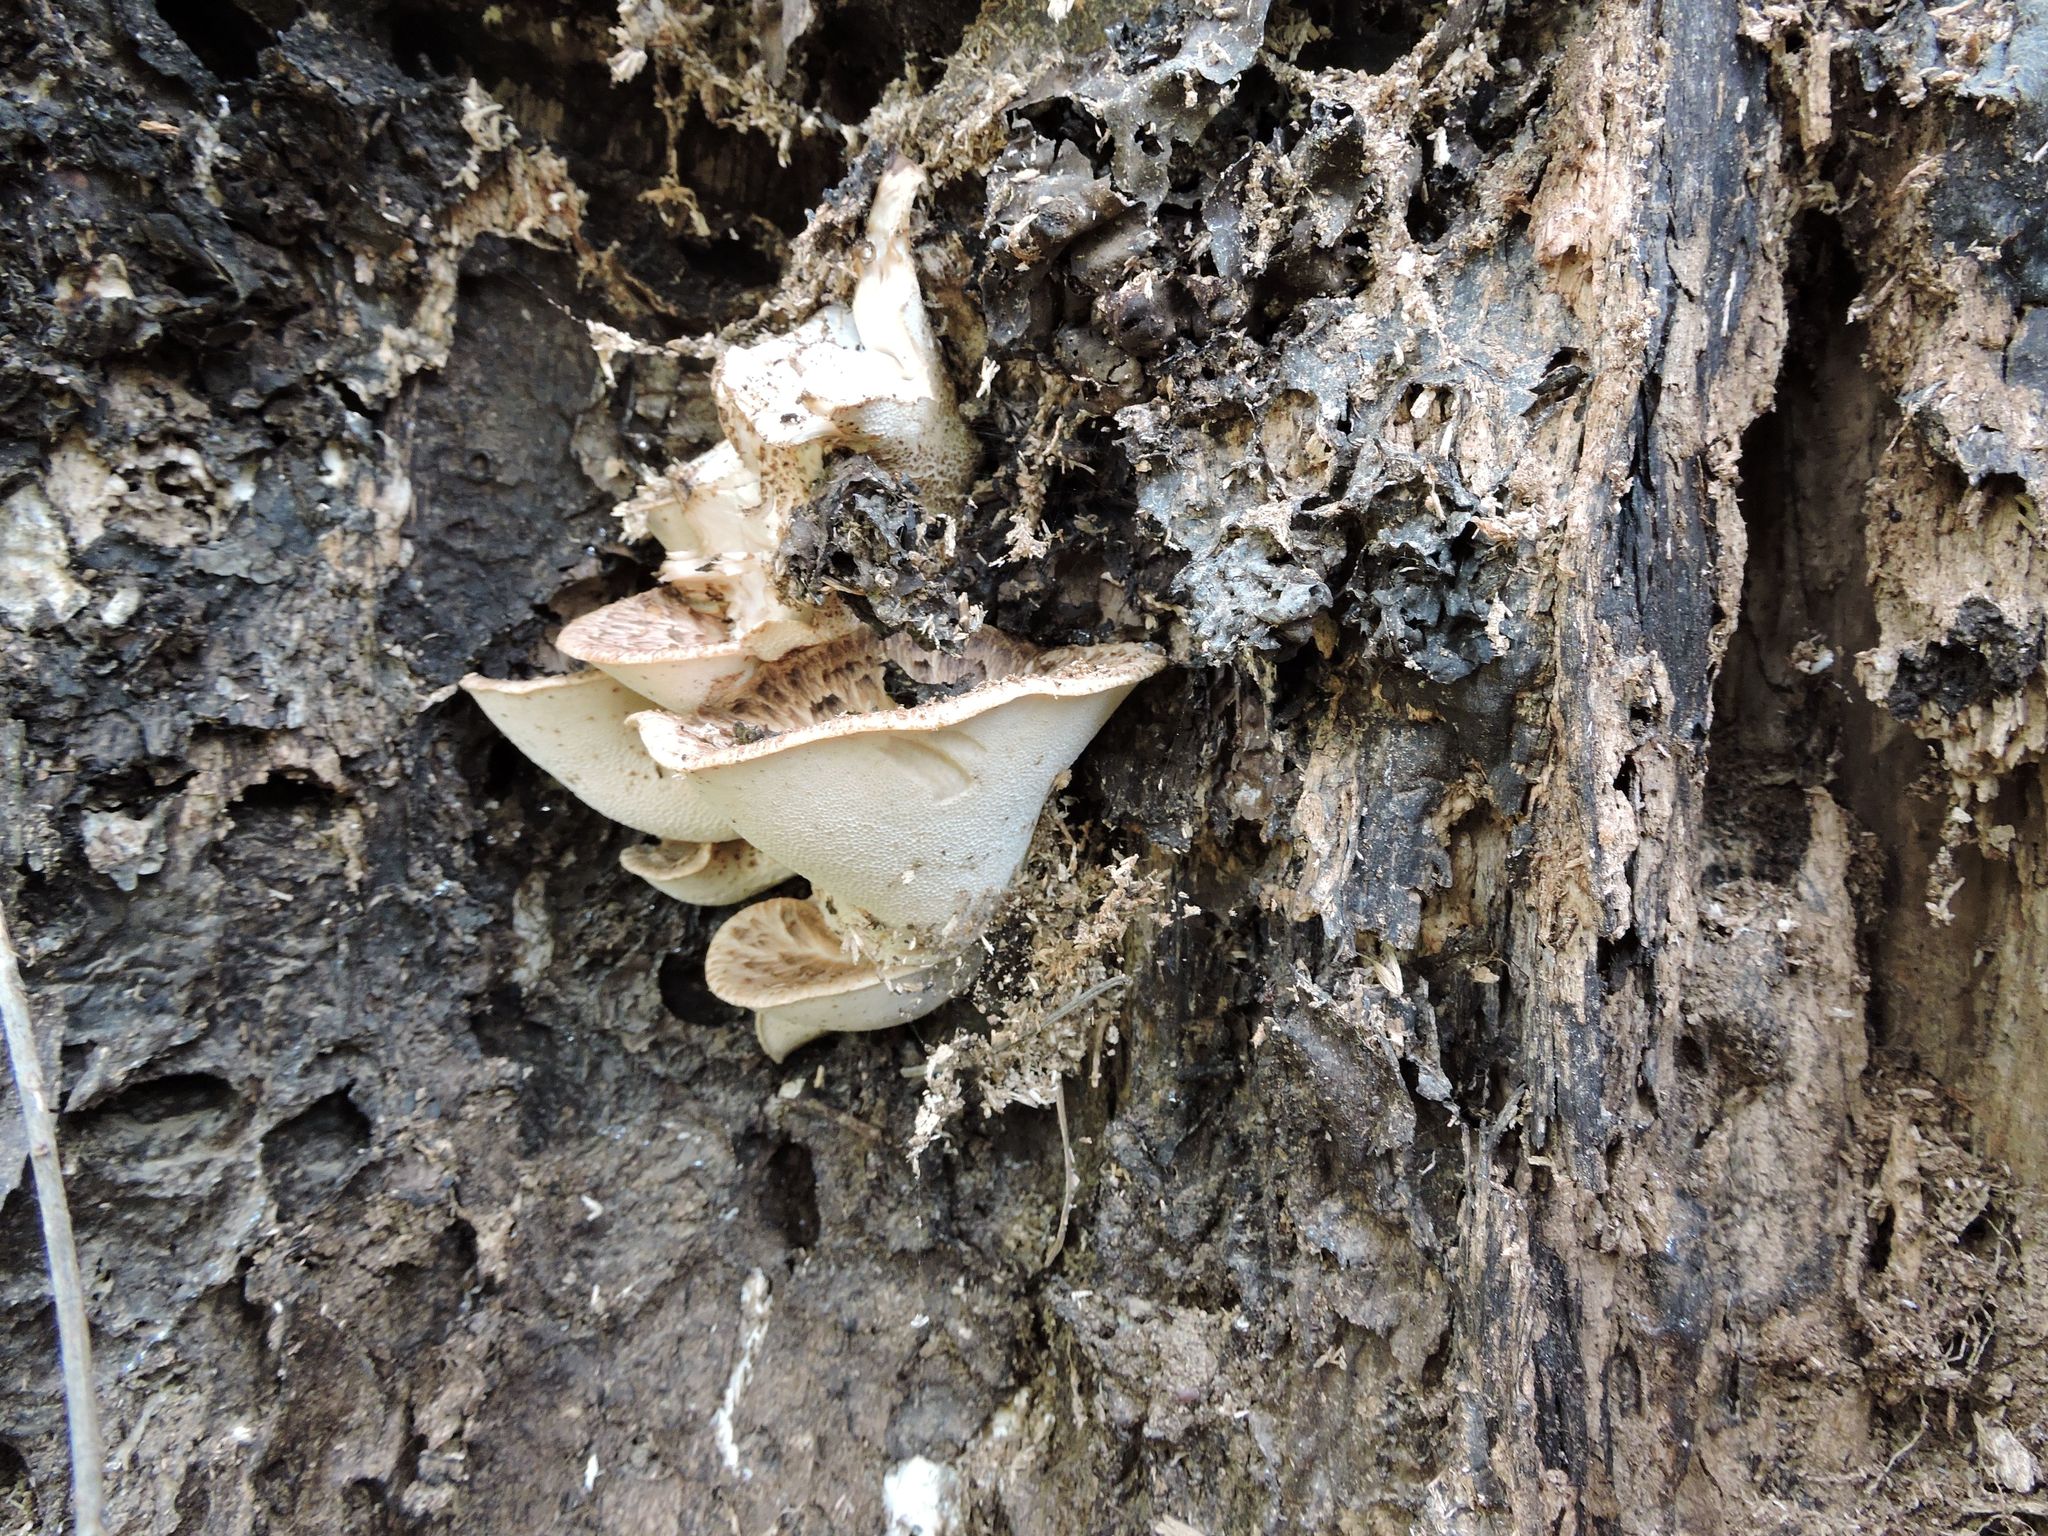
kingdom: Fungi
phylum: Basidiomycota
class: Agaricomycetes
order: Polyporales
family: Polyporaceae
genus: Cerioporus
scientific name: Cerioporus squamosus
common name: Dryad's saddle
